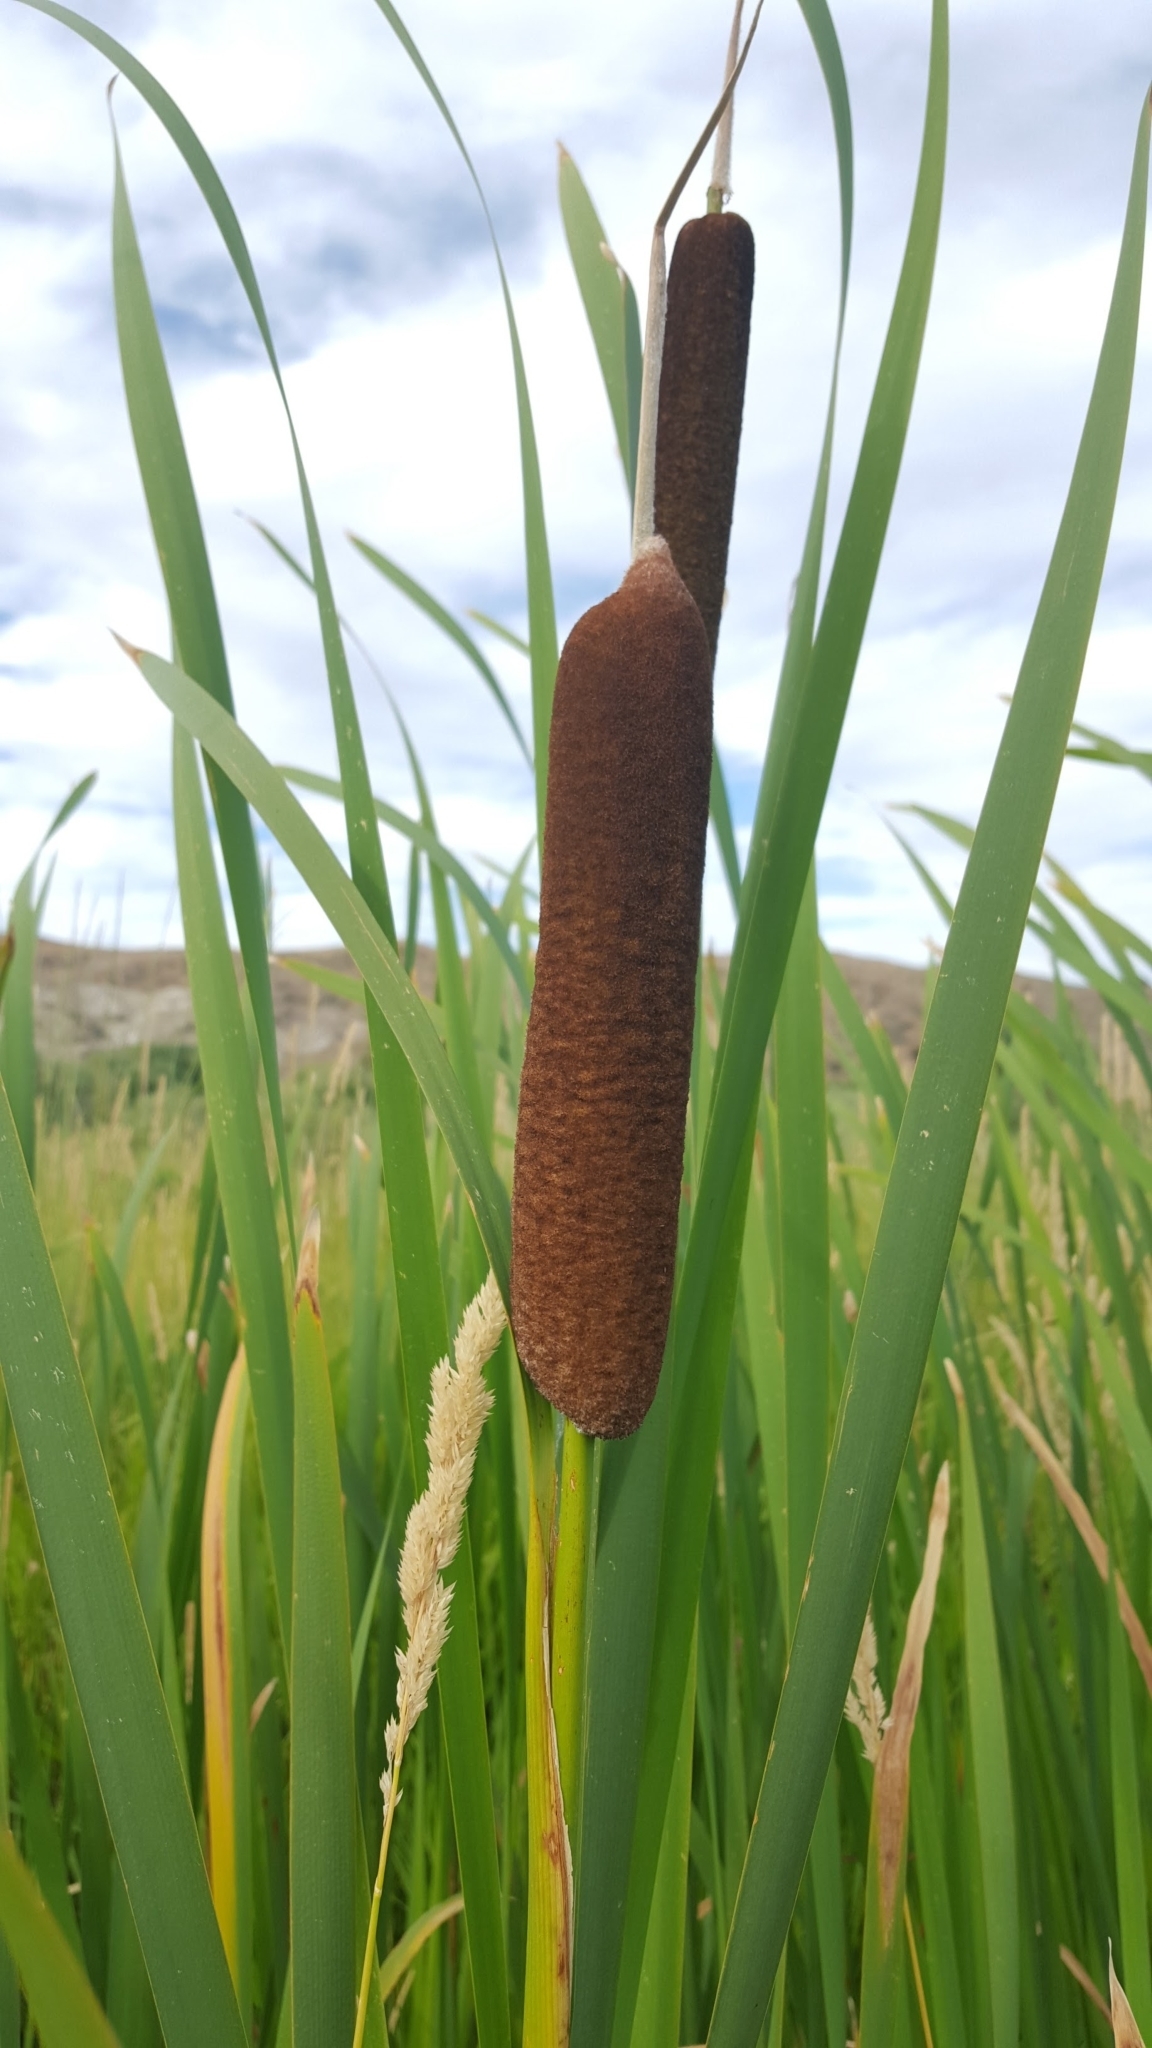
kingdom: Plantae
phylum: Tracheophyta
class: Liliopsida
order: Poales
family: Typhaceae
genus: Typha
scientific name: Typha latifolia
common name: Broadleaf cattail
